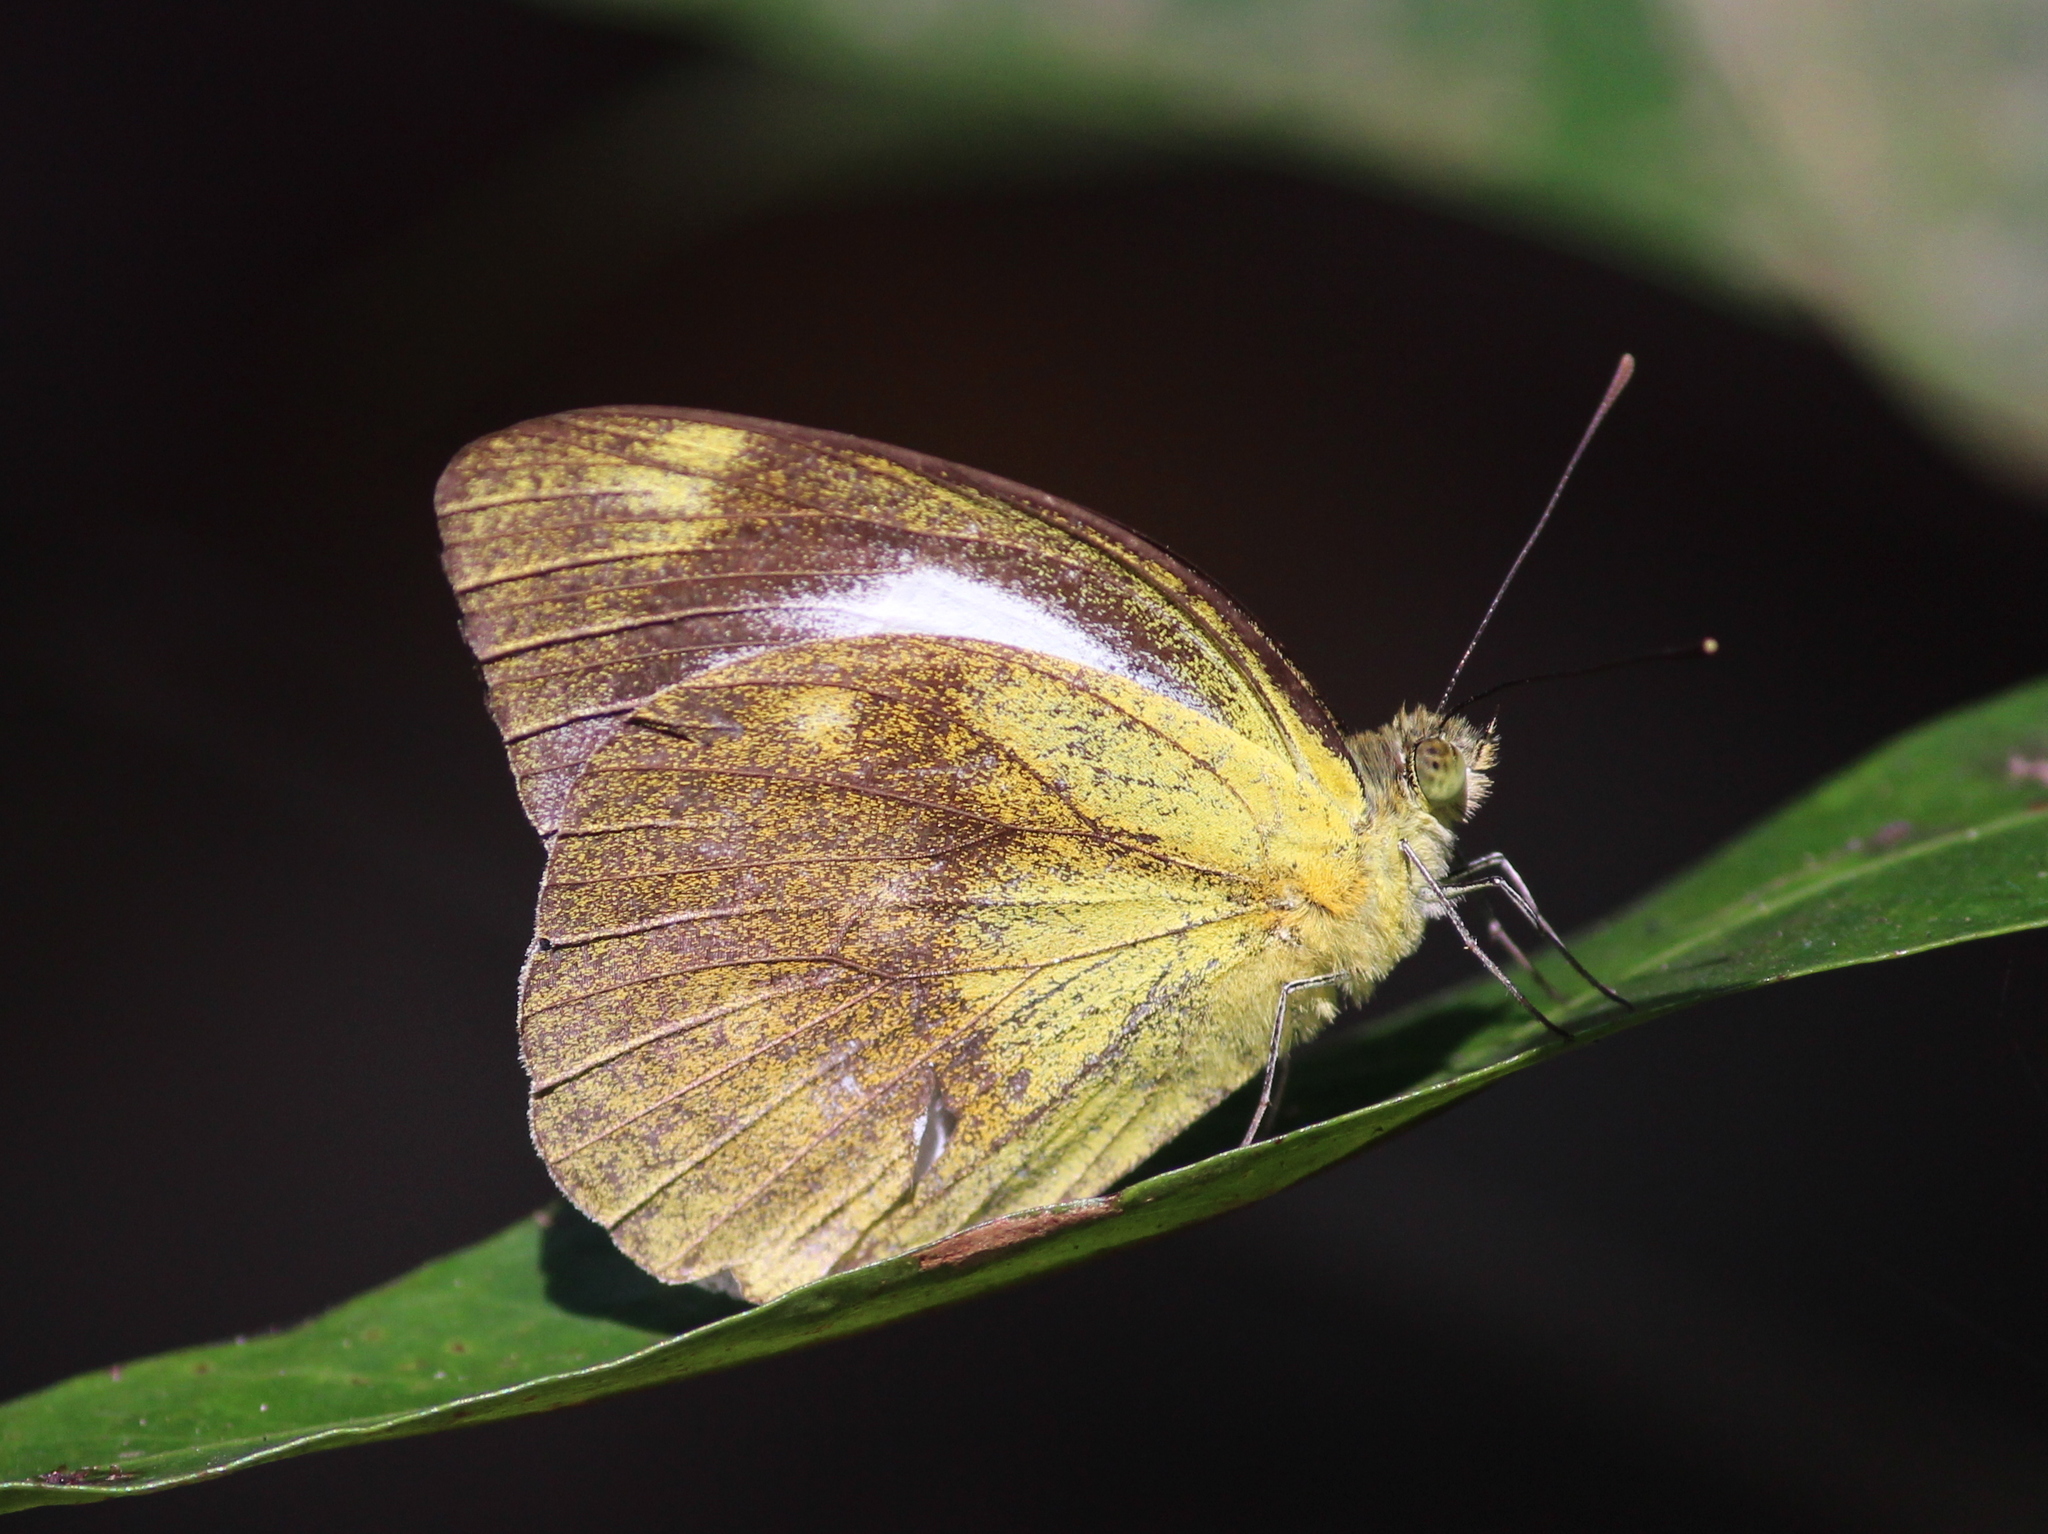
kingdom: Animalia
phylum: Arthropoda
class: Insecta
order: Lepidoptera
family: Pieridae
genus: Cepora
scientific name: Cepora nadina
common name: Lesser gull
